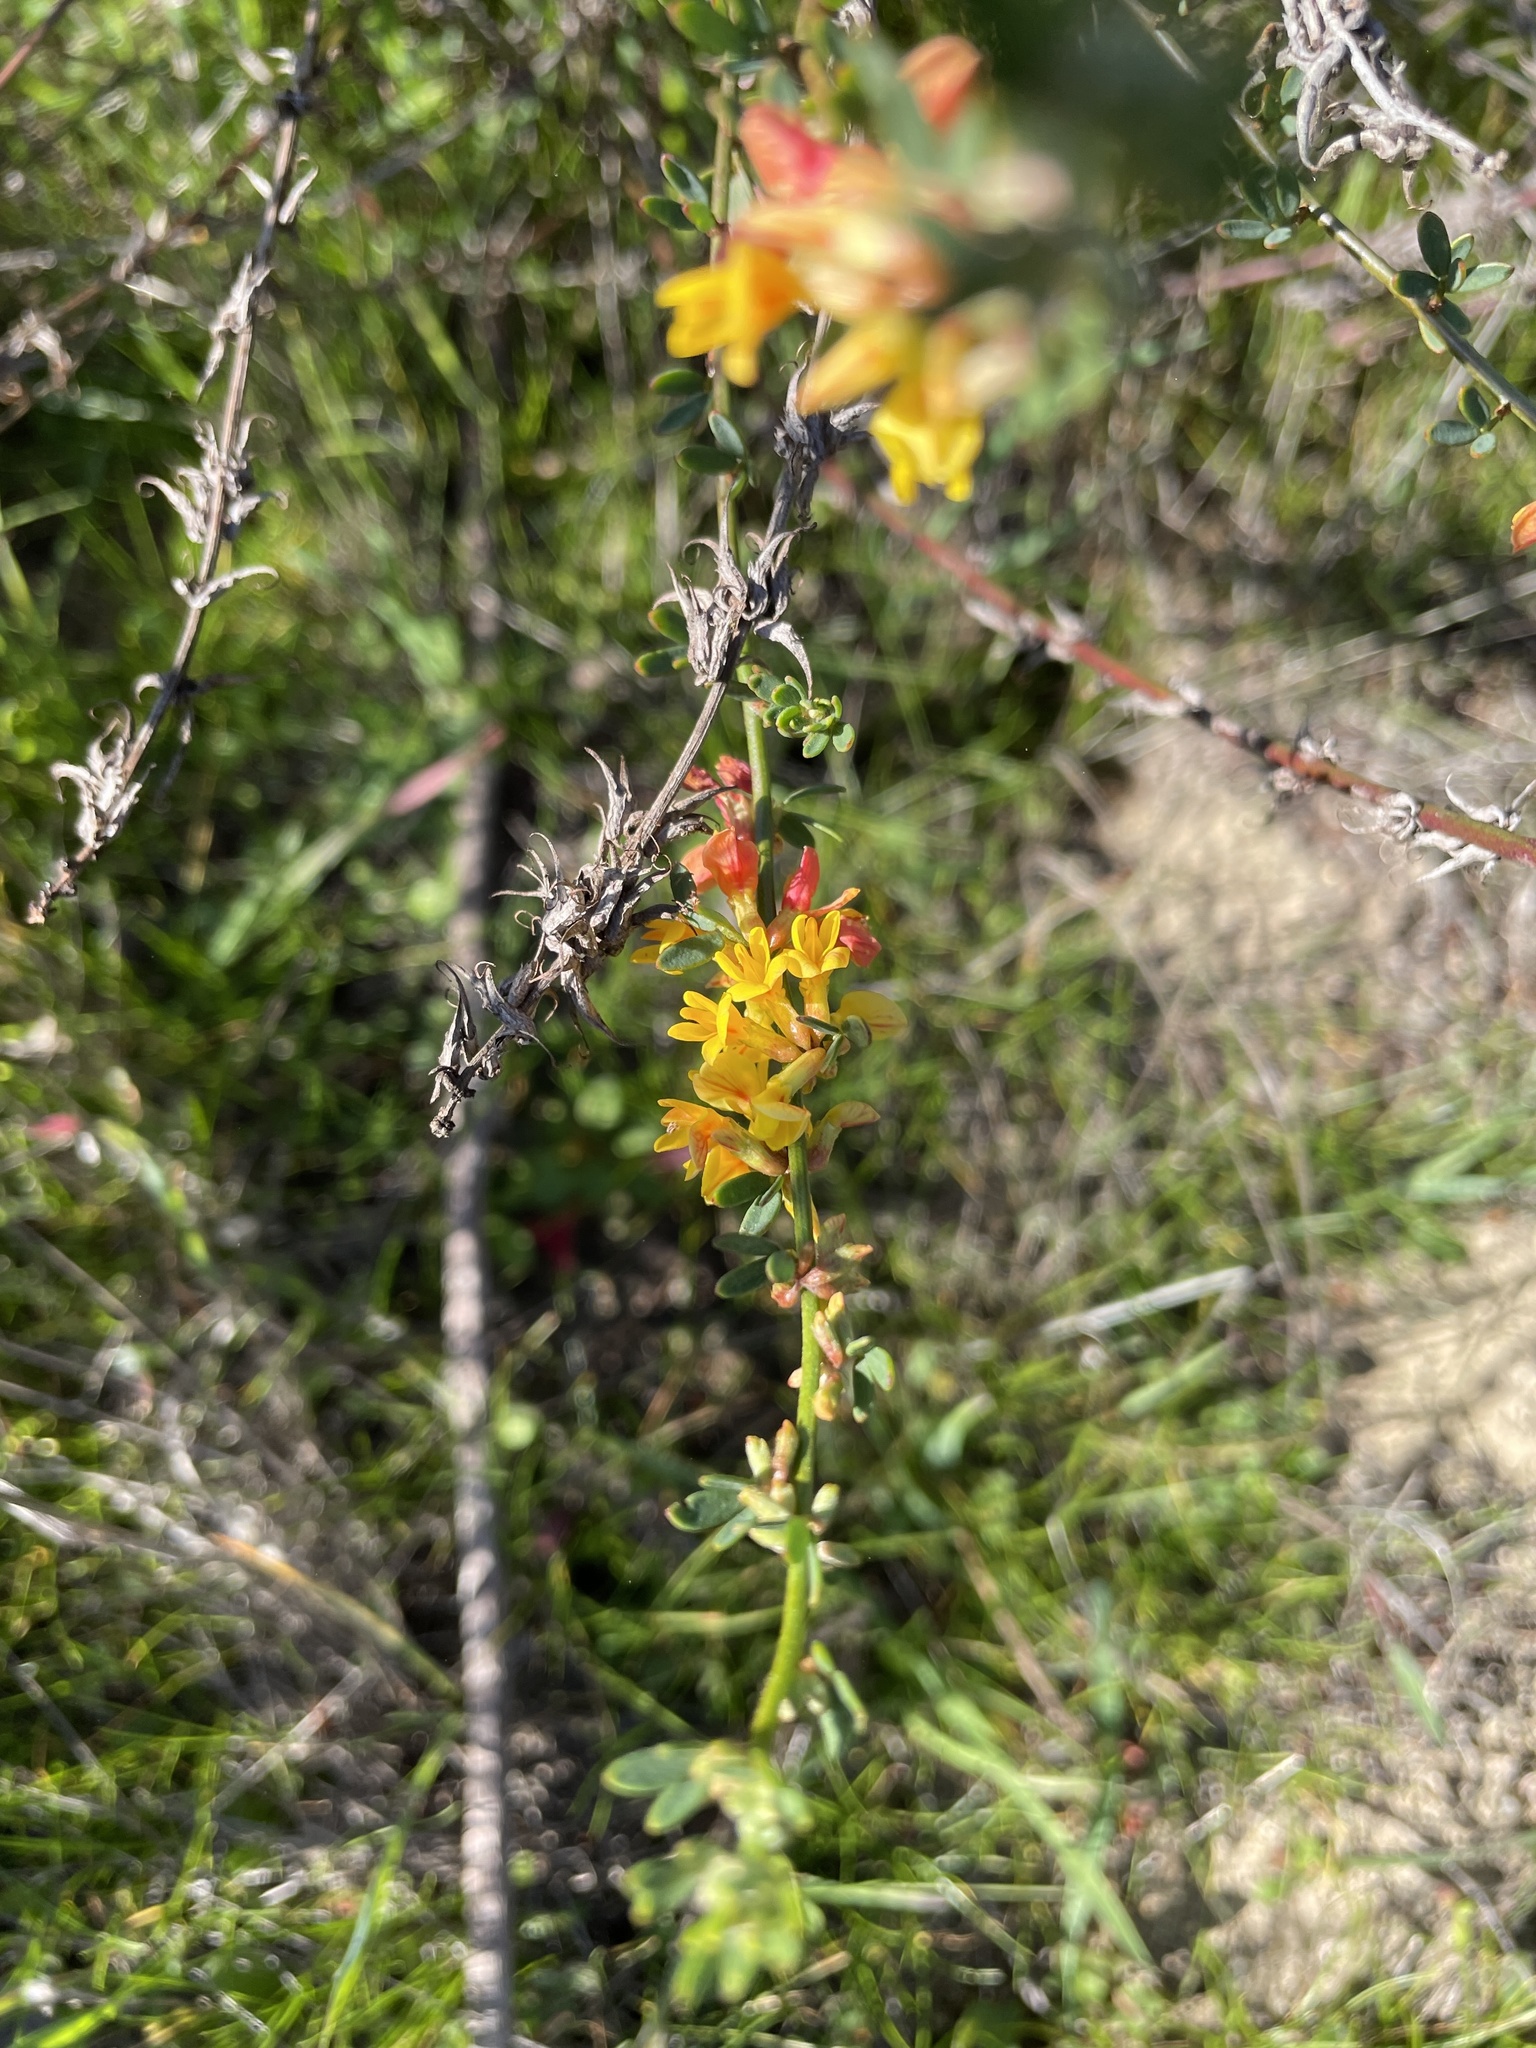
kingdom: Plantae
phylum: Tracheophyta
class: Magnoliopsida
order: Fabales
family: Fabaceae
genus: Acmispon
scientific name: Acmispon glaber
